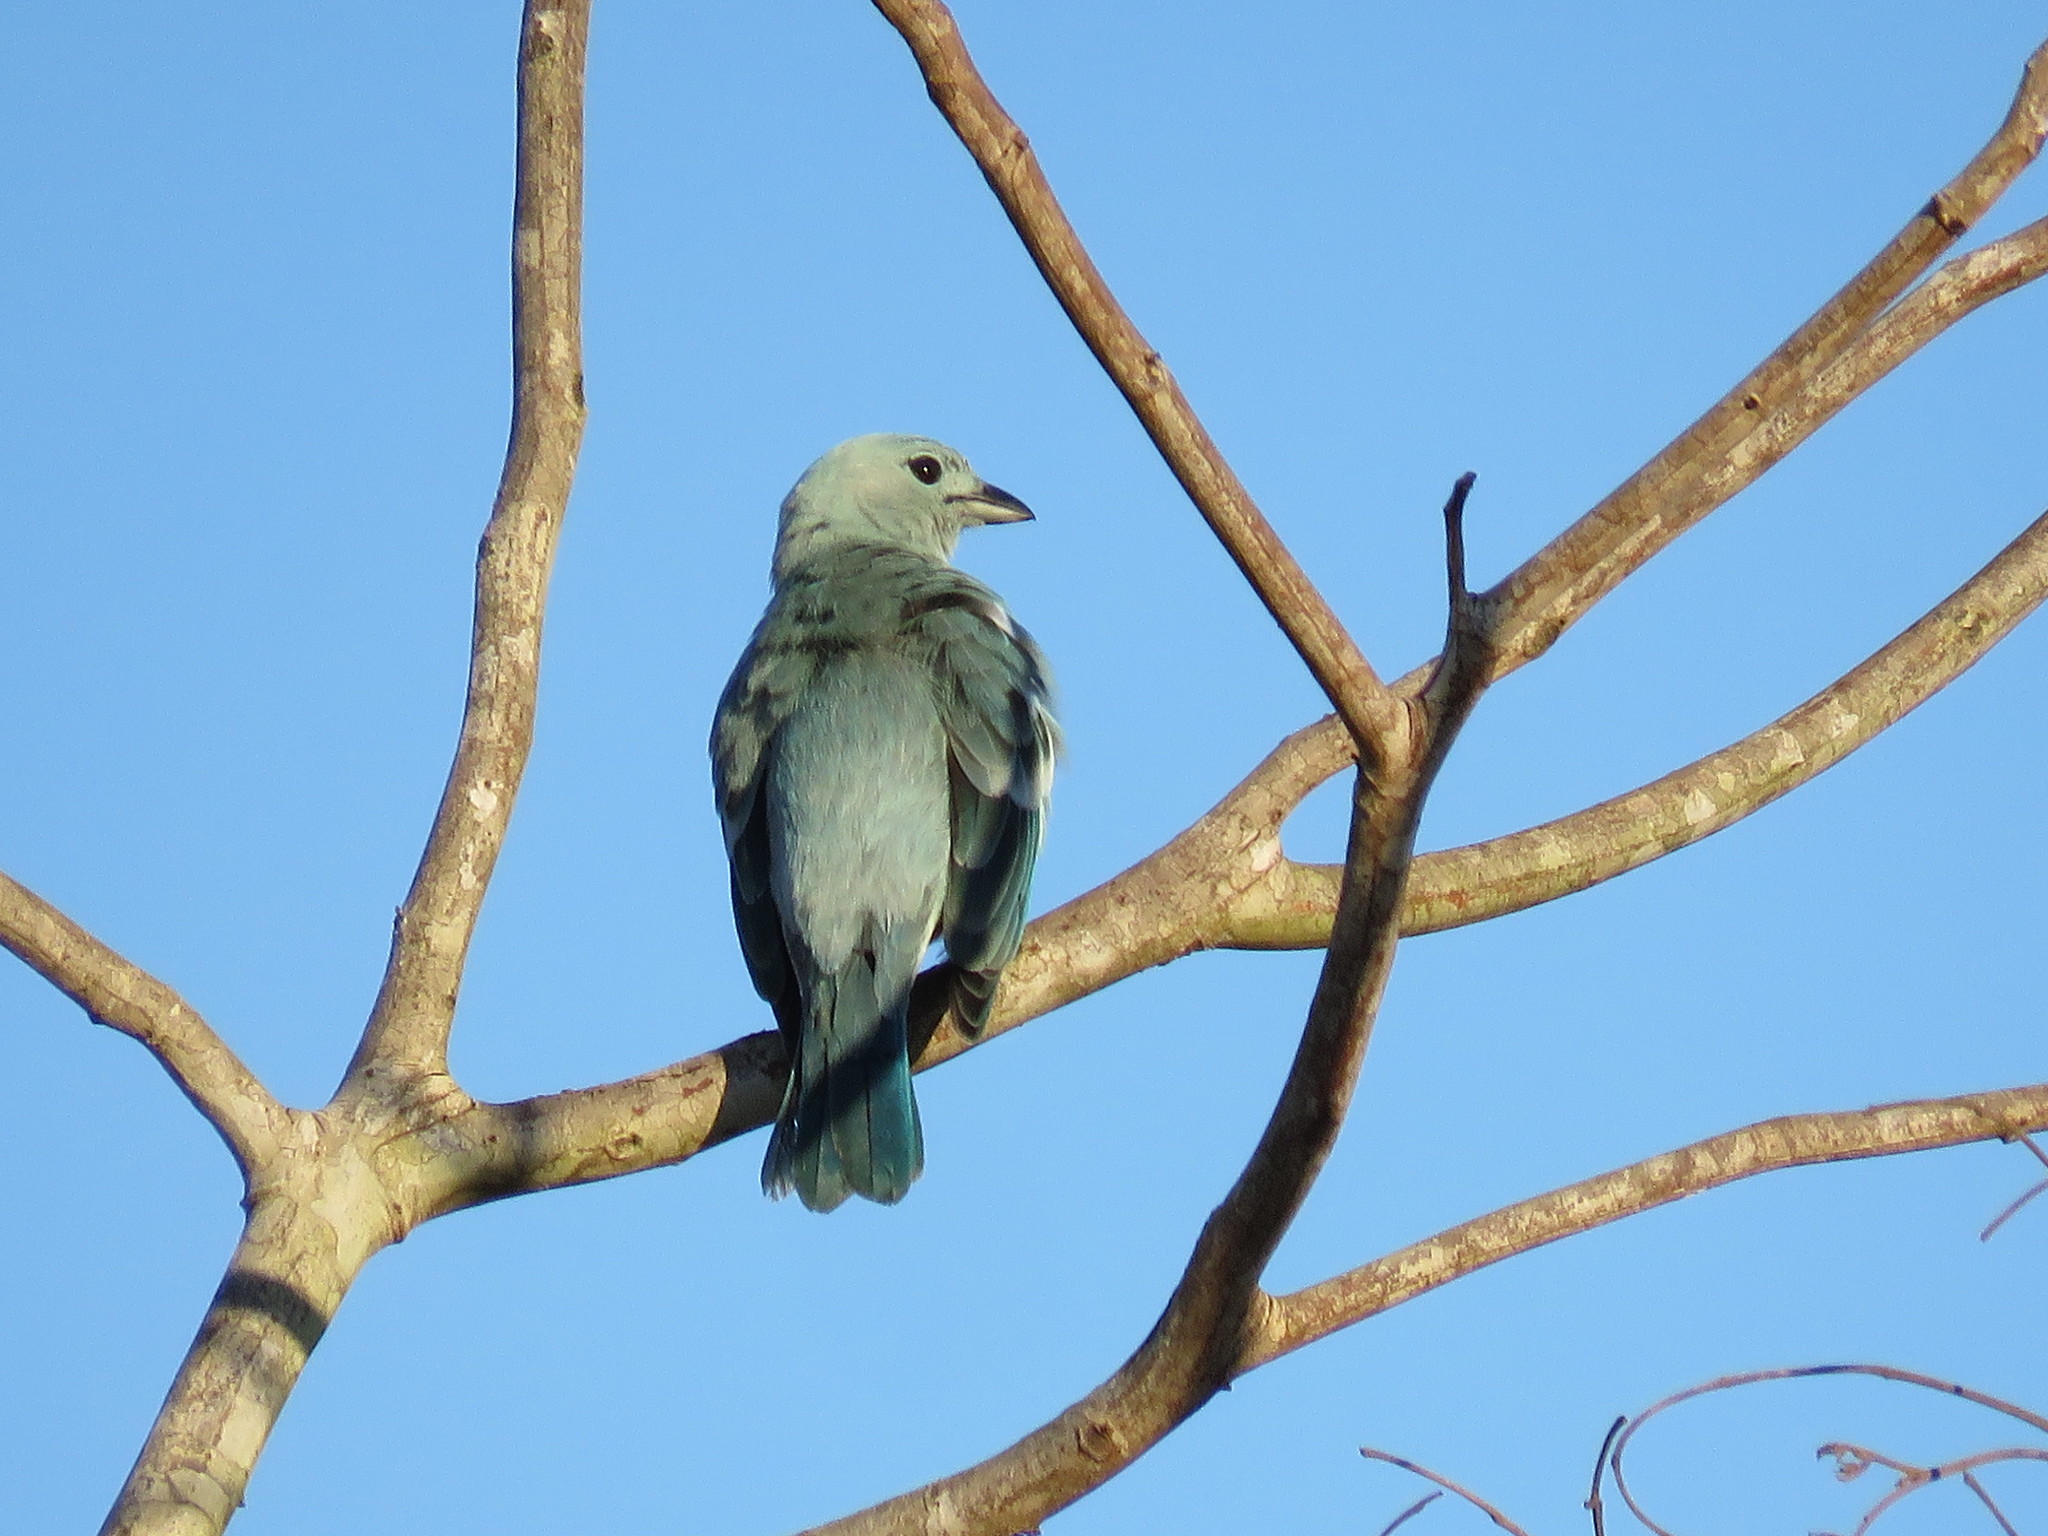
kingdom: Animalia
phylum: Chordata
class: Aves
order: Passeriformes
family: Thraupidae
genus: Thraupis
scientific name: Thraupis episcopus
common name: Blue-grey tanager
